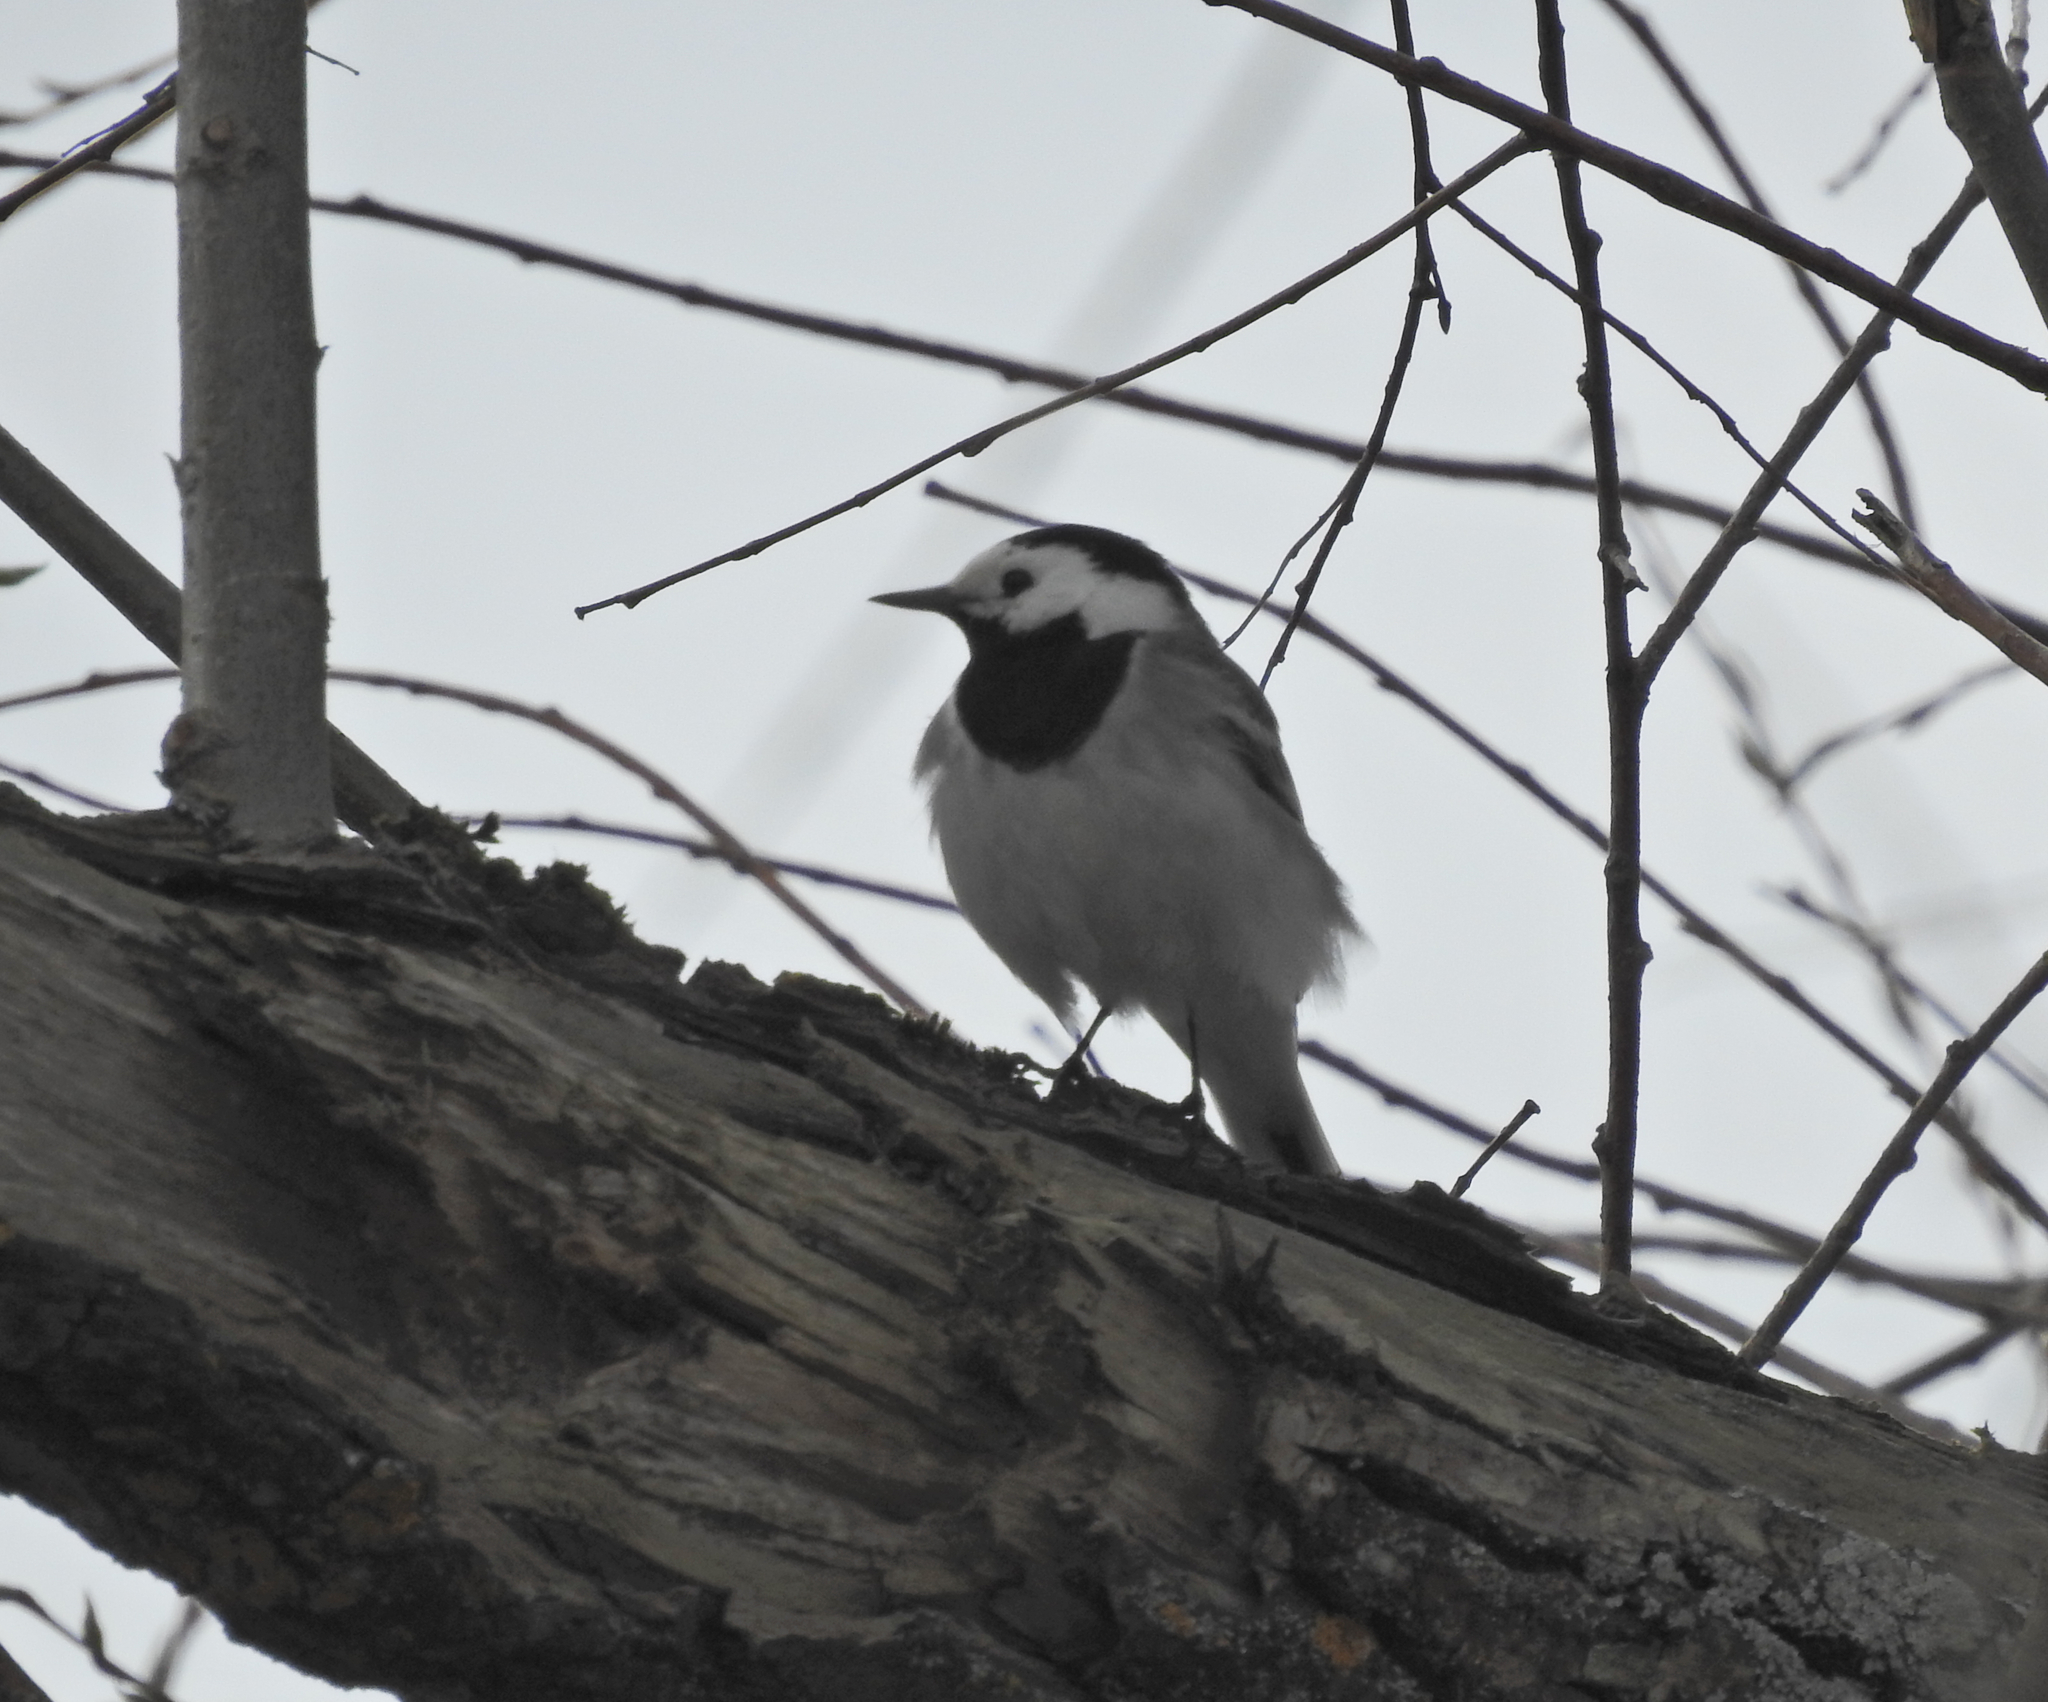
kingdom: Animalia
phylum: Chordata
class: Aves
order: Passeriformes
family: Motacillidae
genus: Motacilla
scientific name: Motacilla alba
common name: White wagtail
